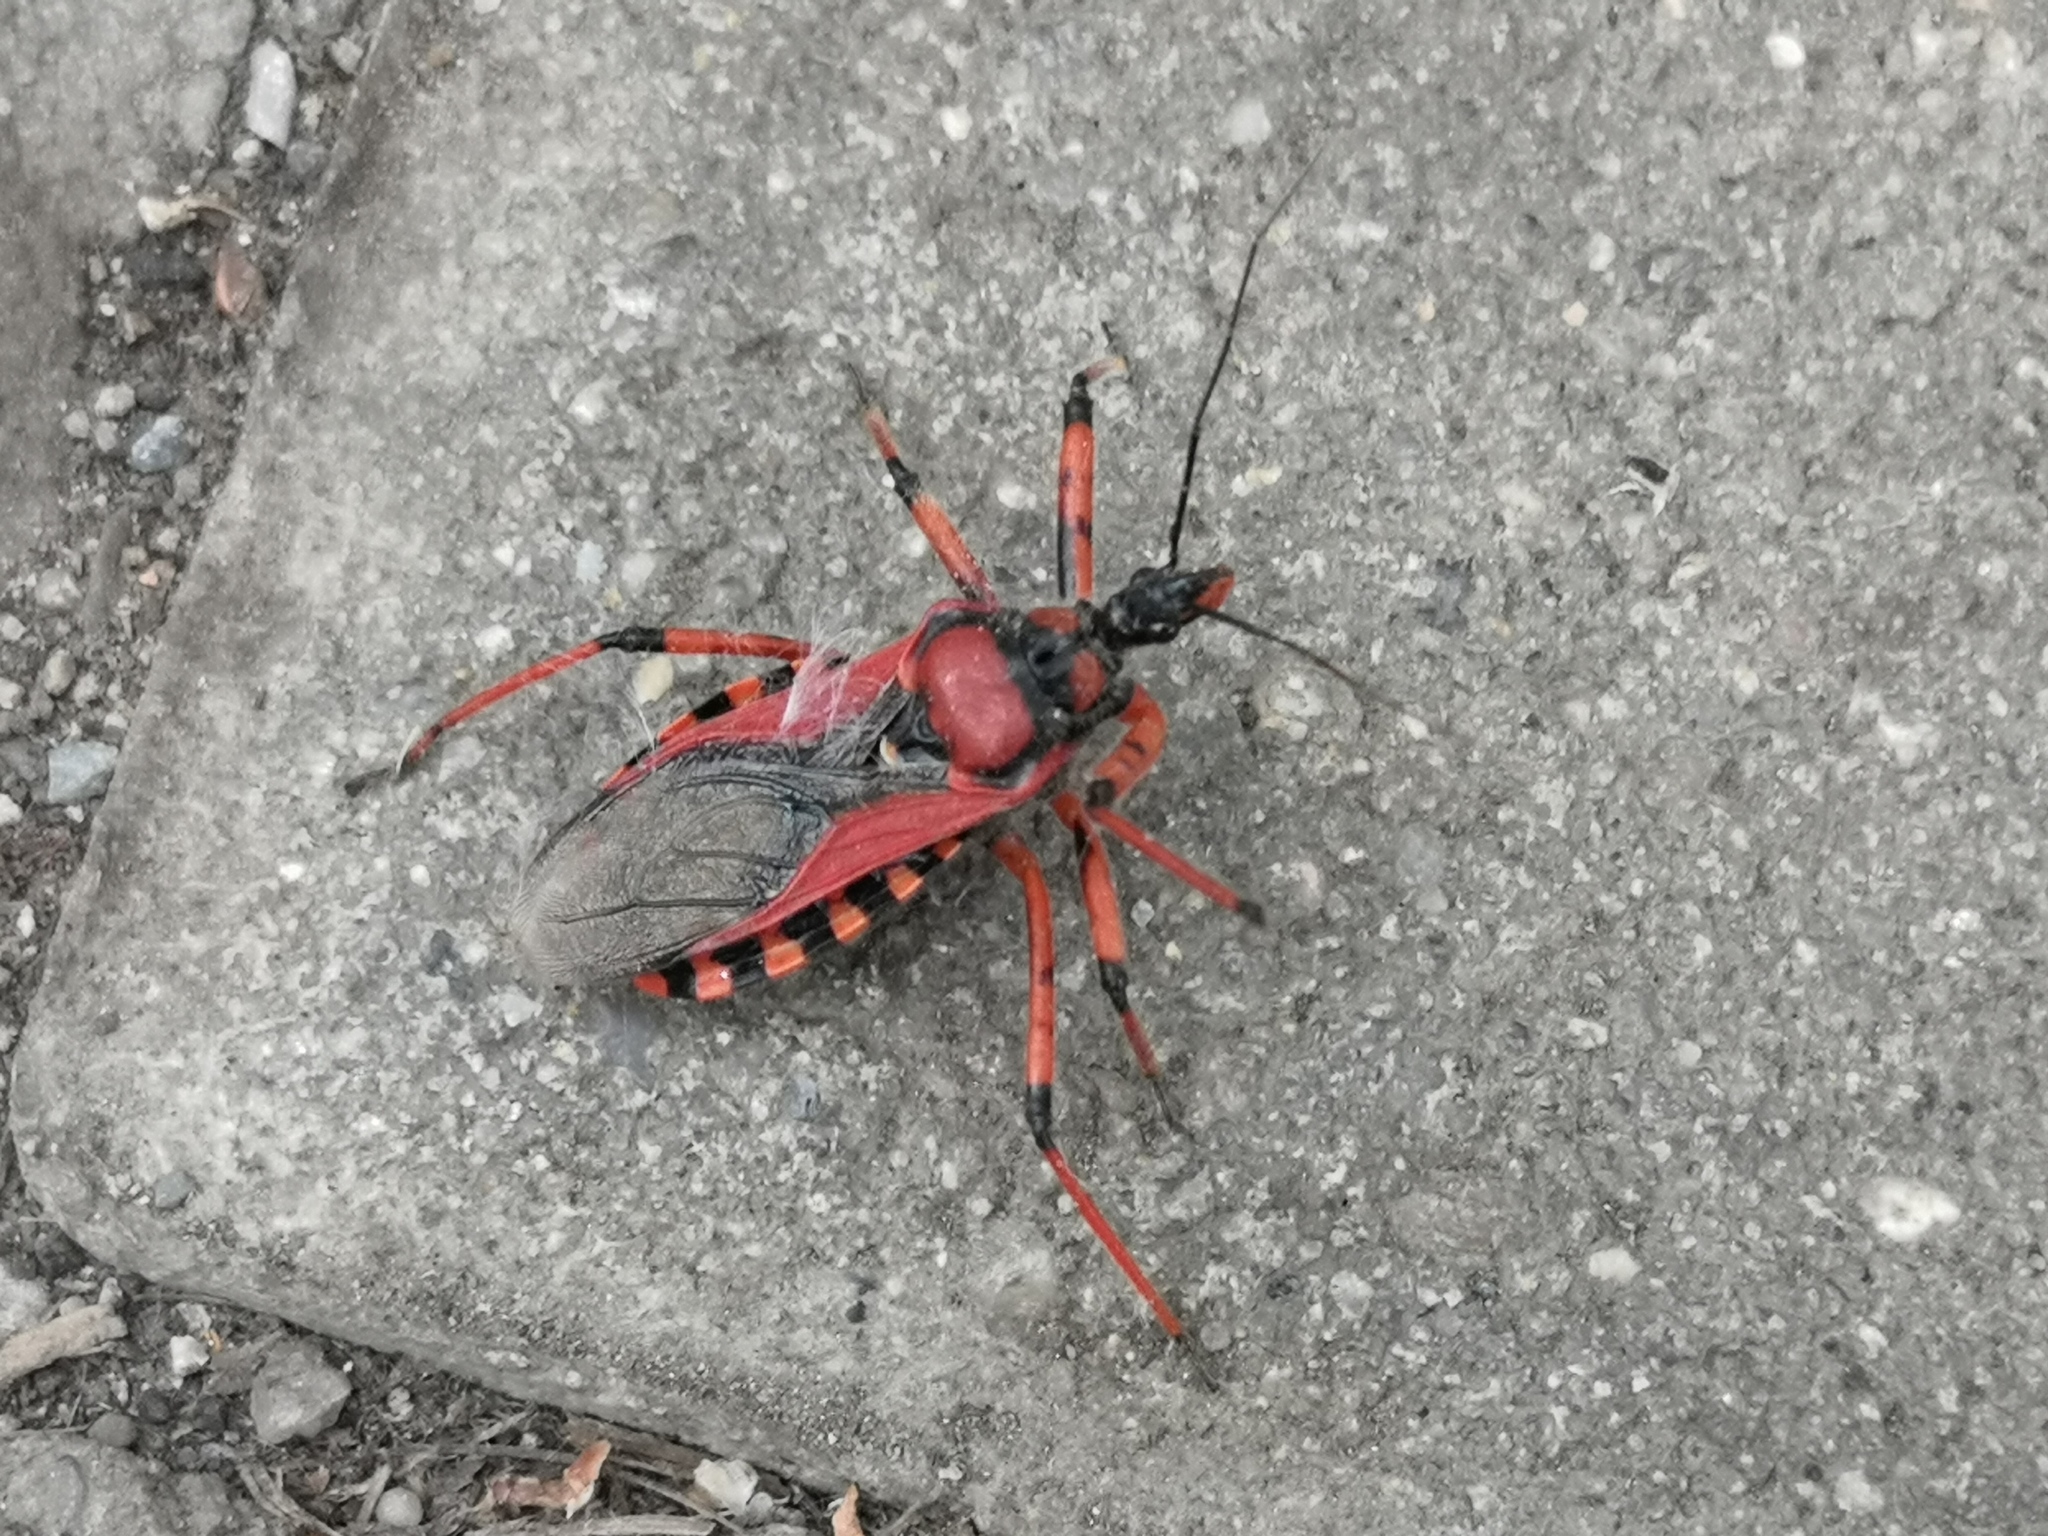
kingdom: Animalia
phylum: Arthropoda
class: Insecta
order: Hemiptera
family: Reduviidae
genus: Rhynocoris
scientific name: Rhynocoris iracundus
